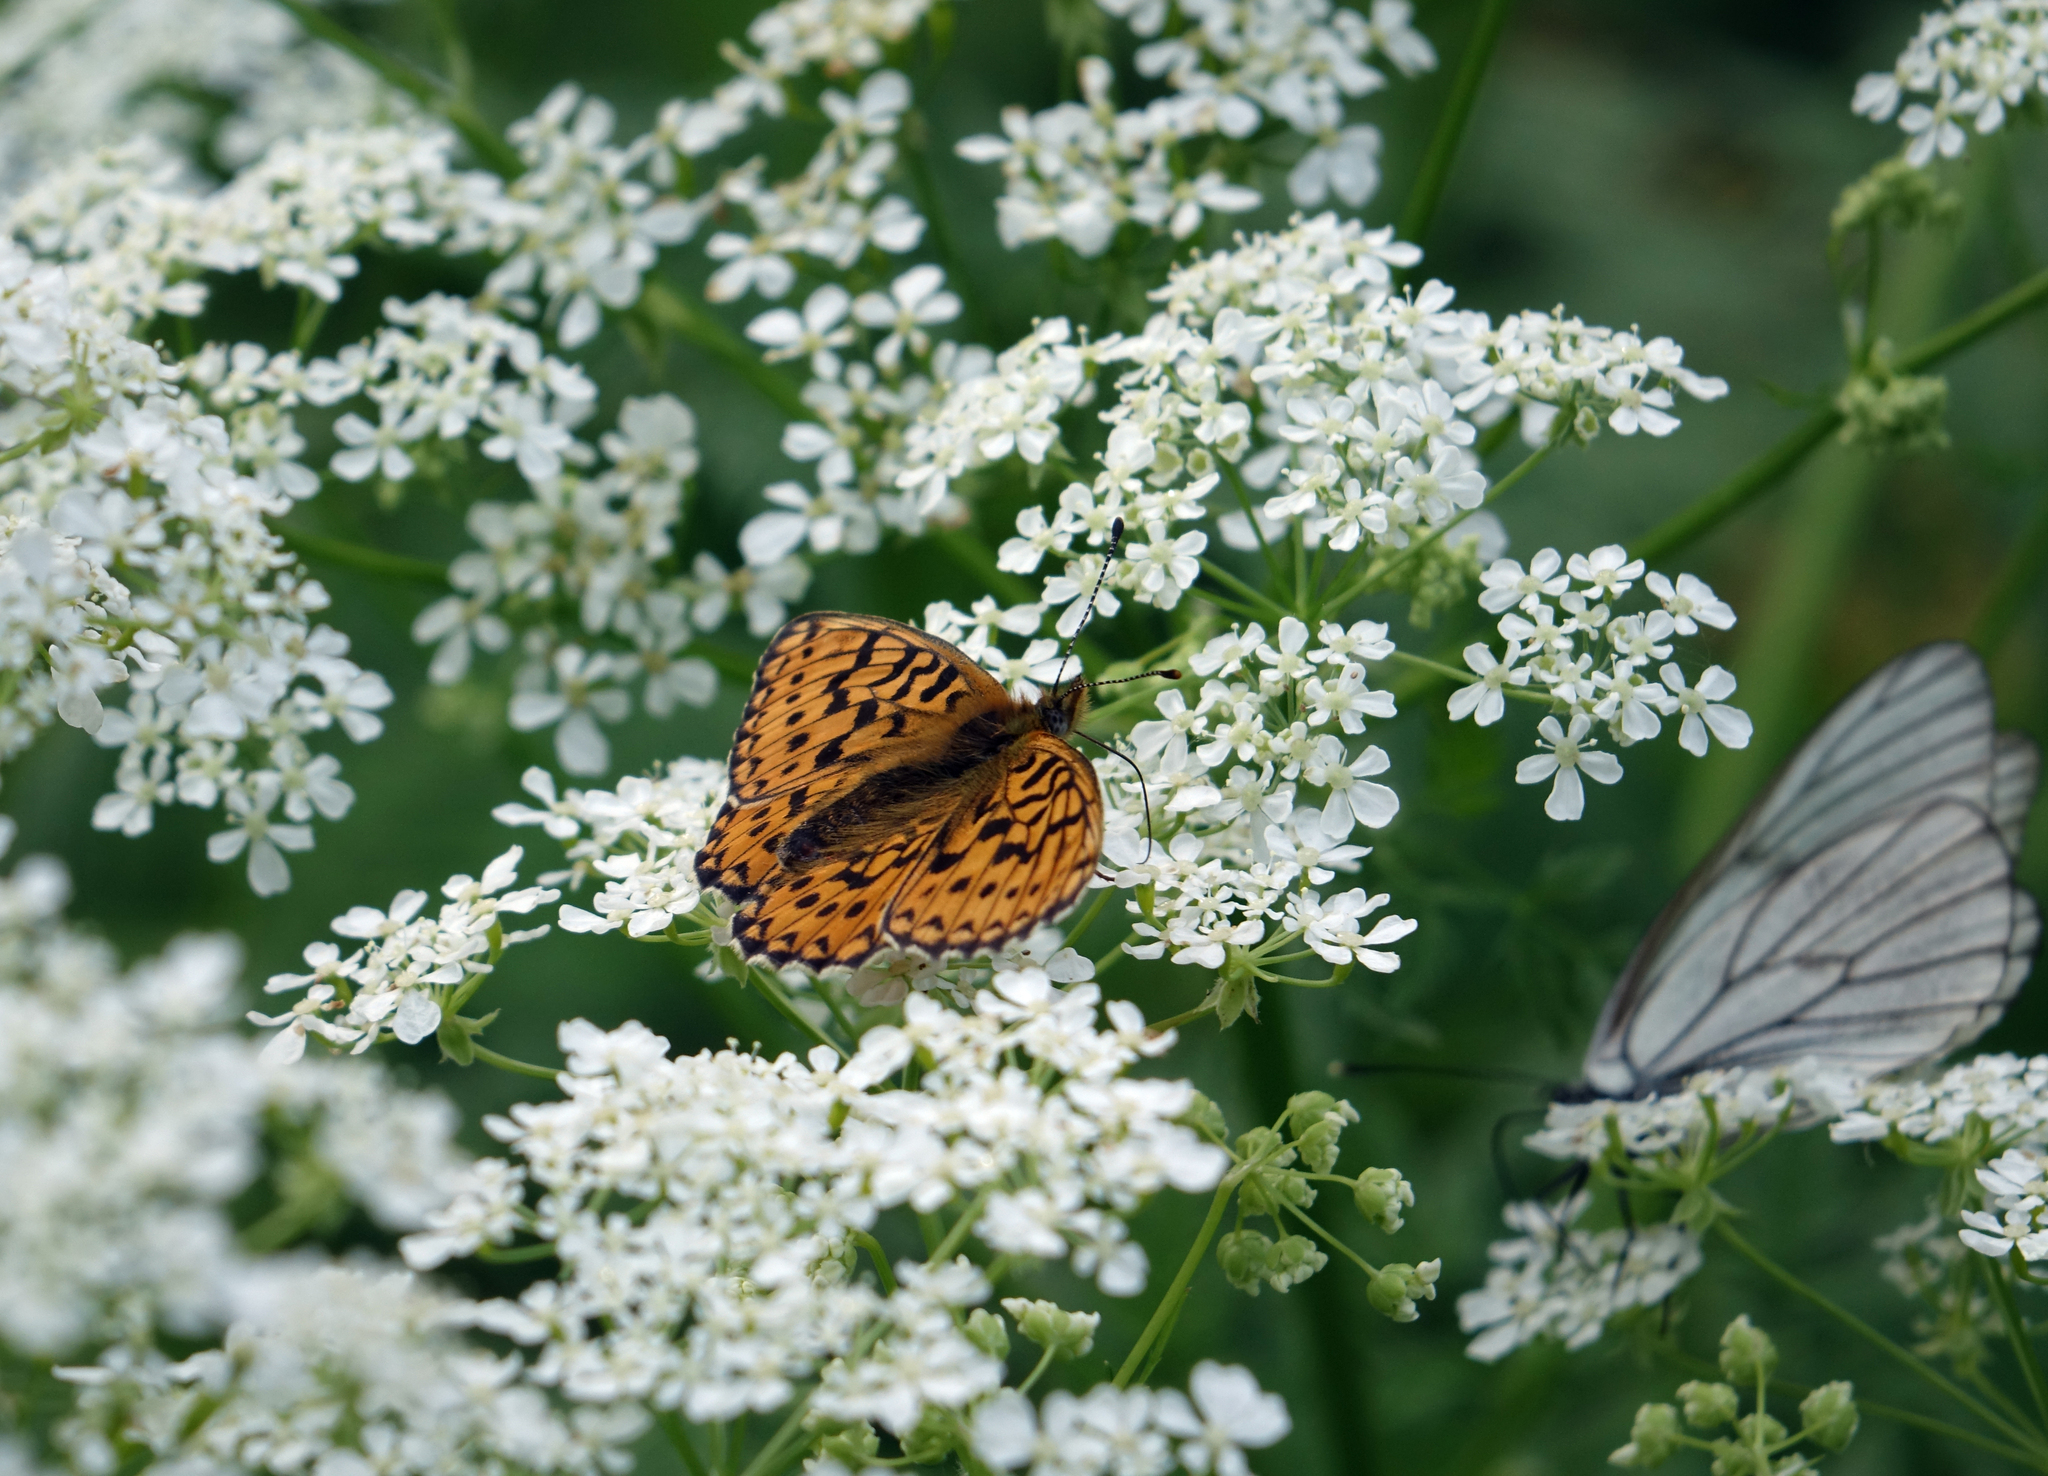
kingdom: Animalia
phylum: Arthropoda
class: Insecta
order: Lepidoptera
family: Nymphalidae
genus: Clossiana
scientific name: Clossiana oscarus
